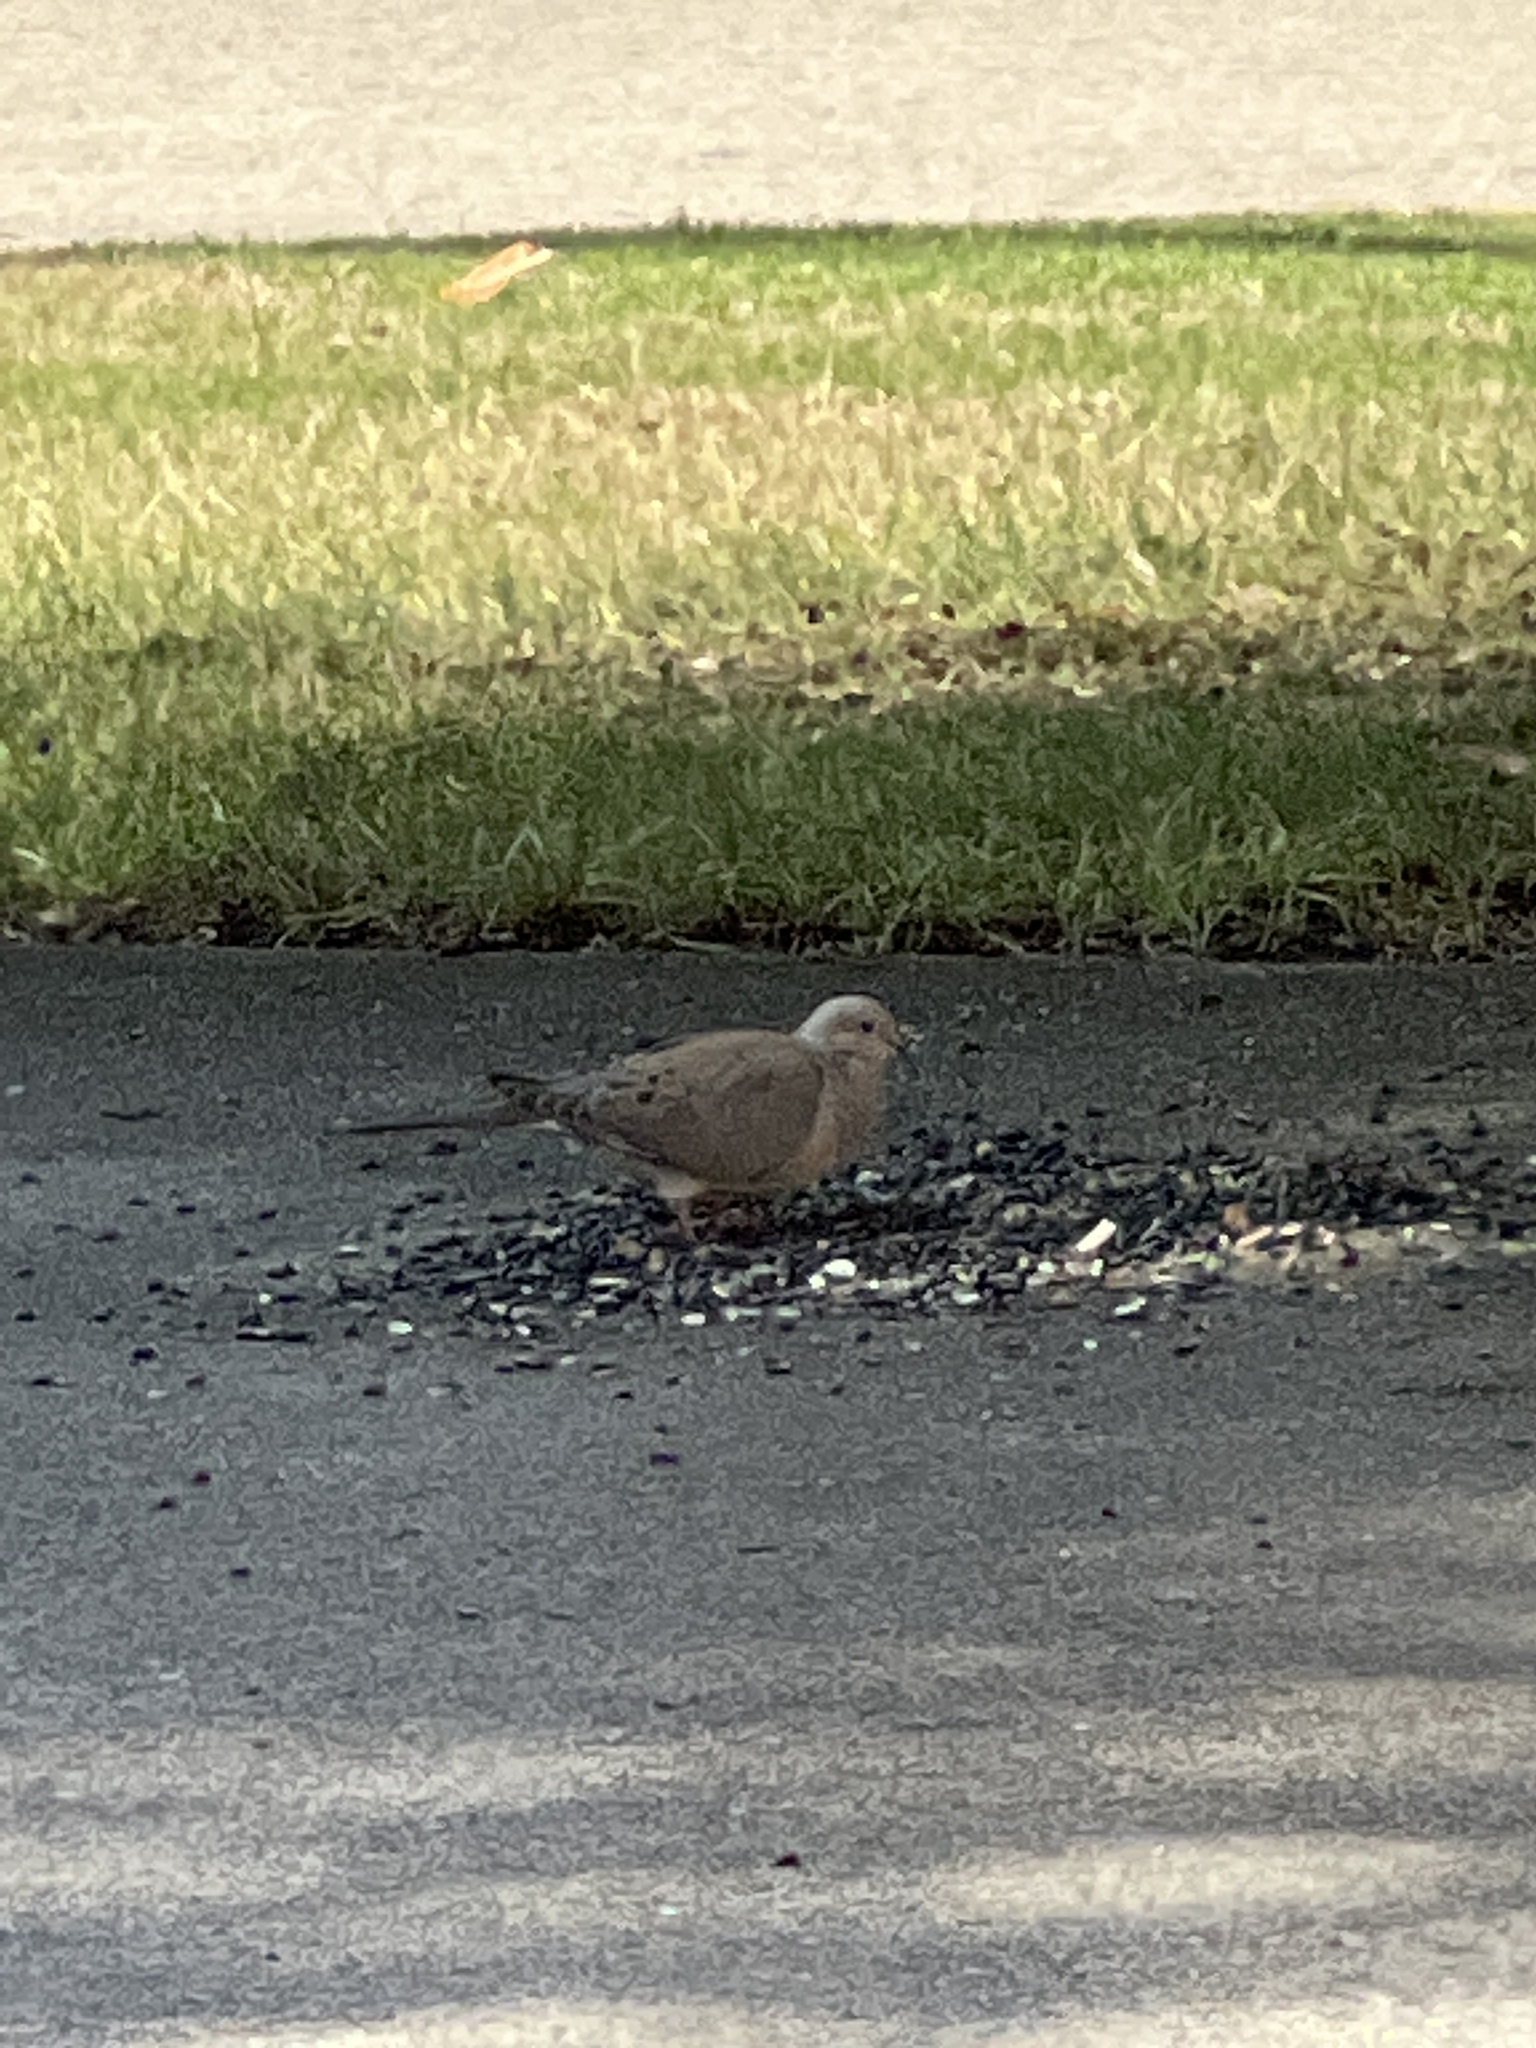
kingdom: Animalia
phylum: Chordata
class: Aves
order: Columbiformes
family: Columbidae
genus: Zenaida
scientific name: Zenaida macroura
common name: Mourning dove
